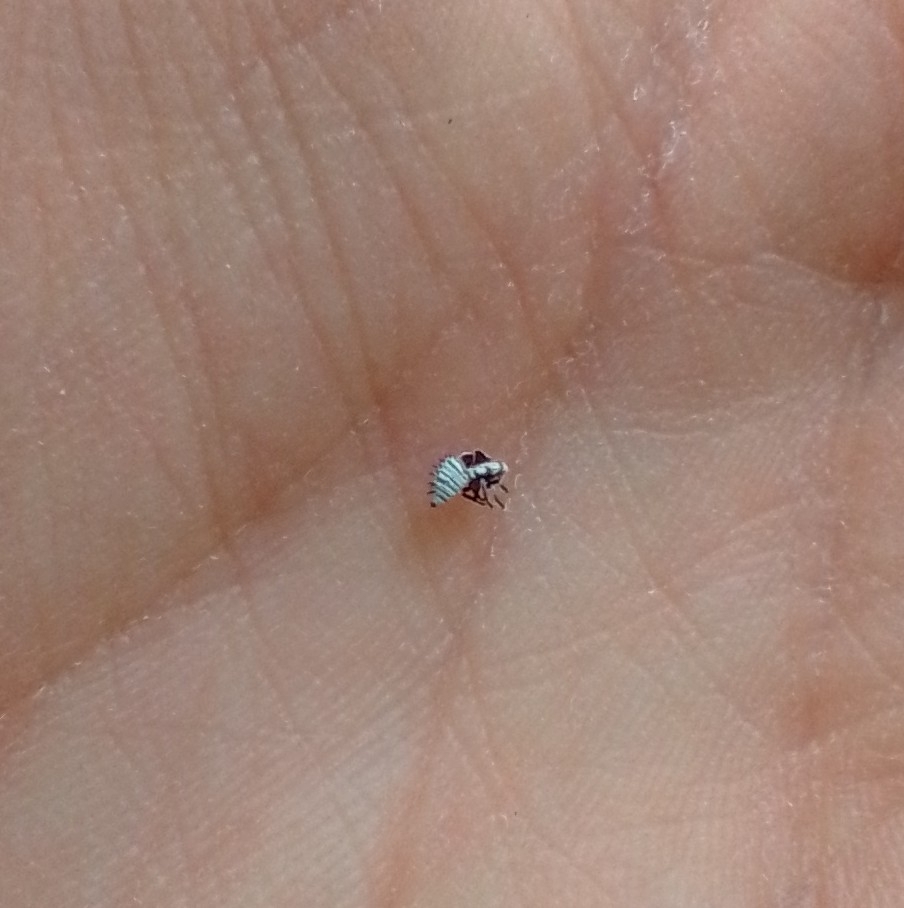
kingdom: Animalia
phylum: Arthropoda
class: Insecta
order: Hemiptera
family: Membracidae
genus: Membracis
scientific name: Membracis mexicana
